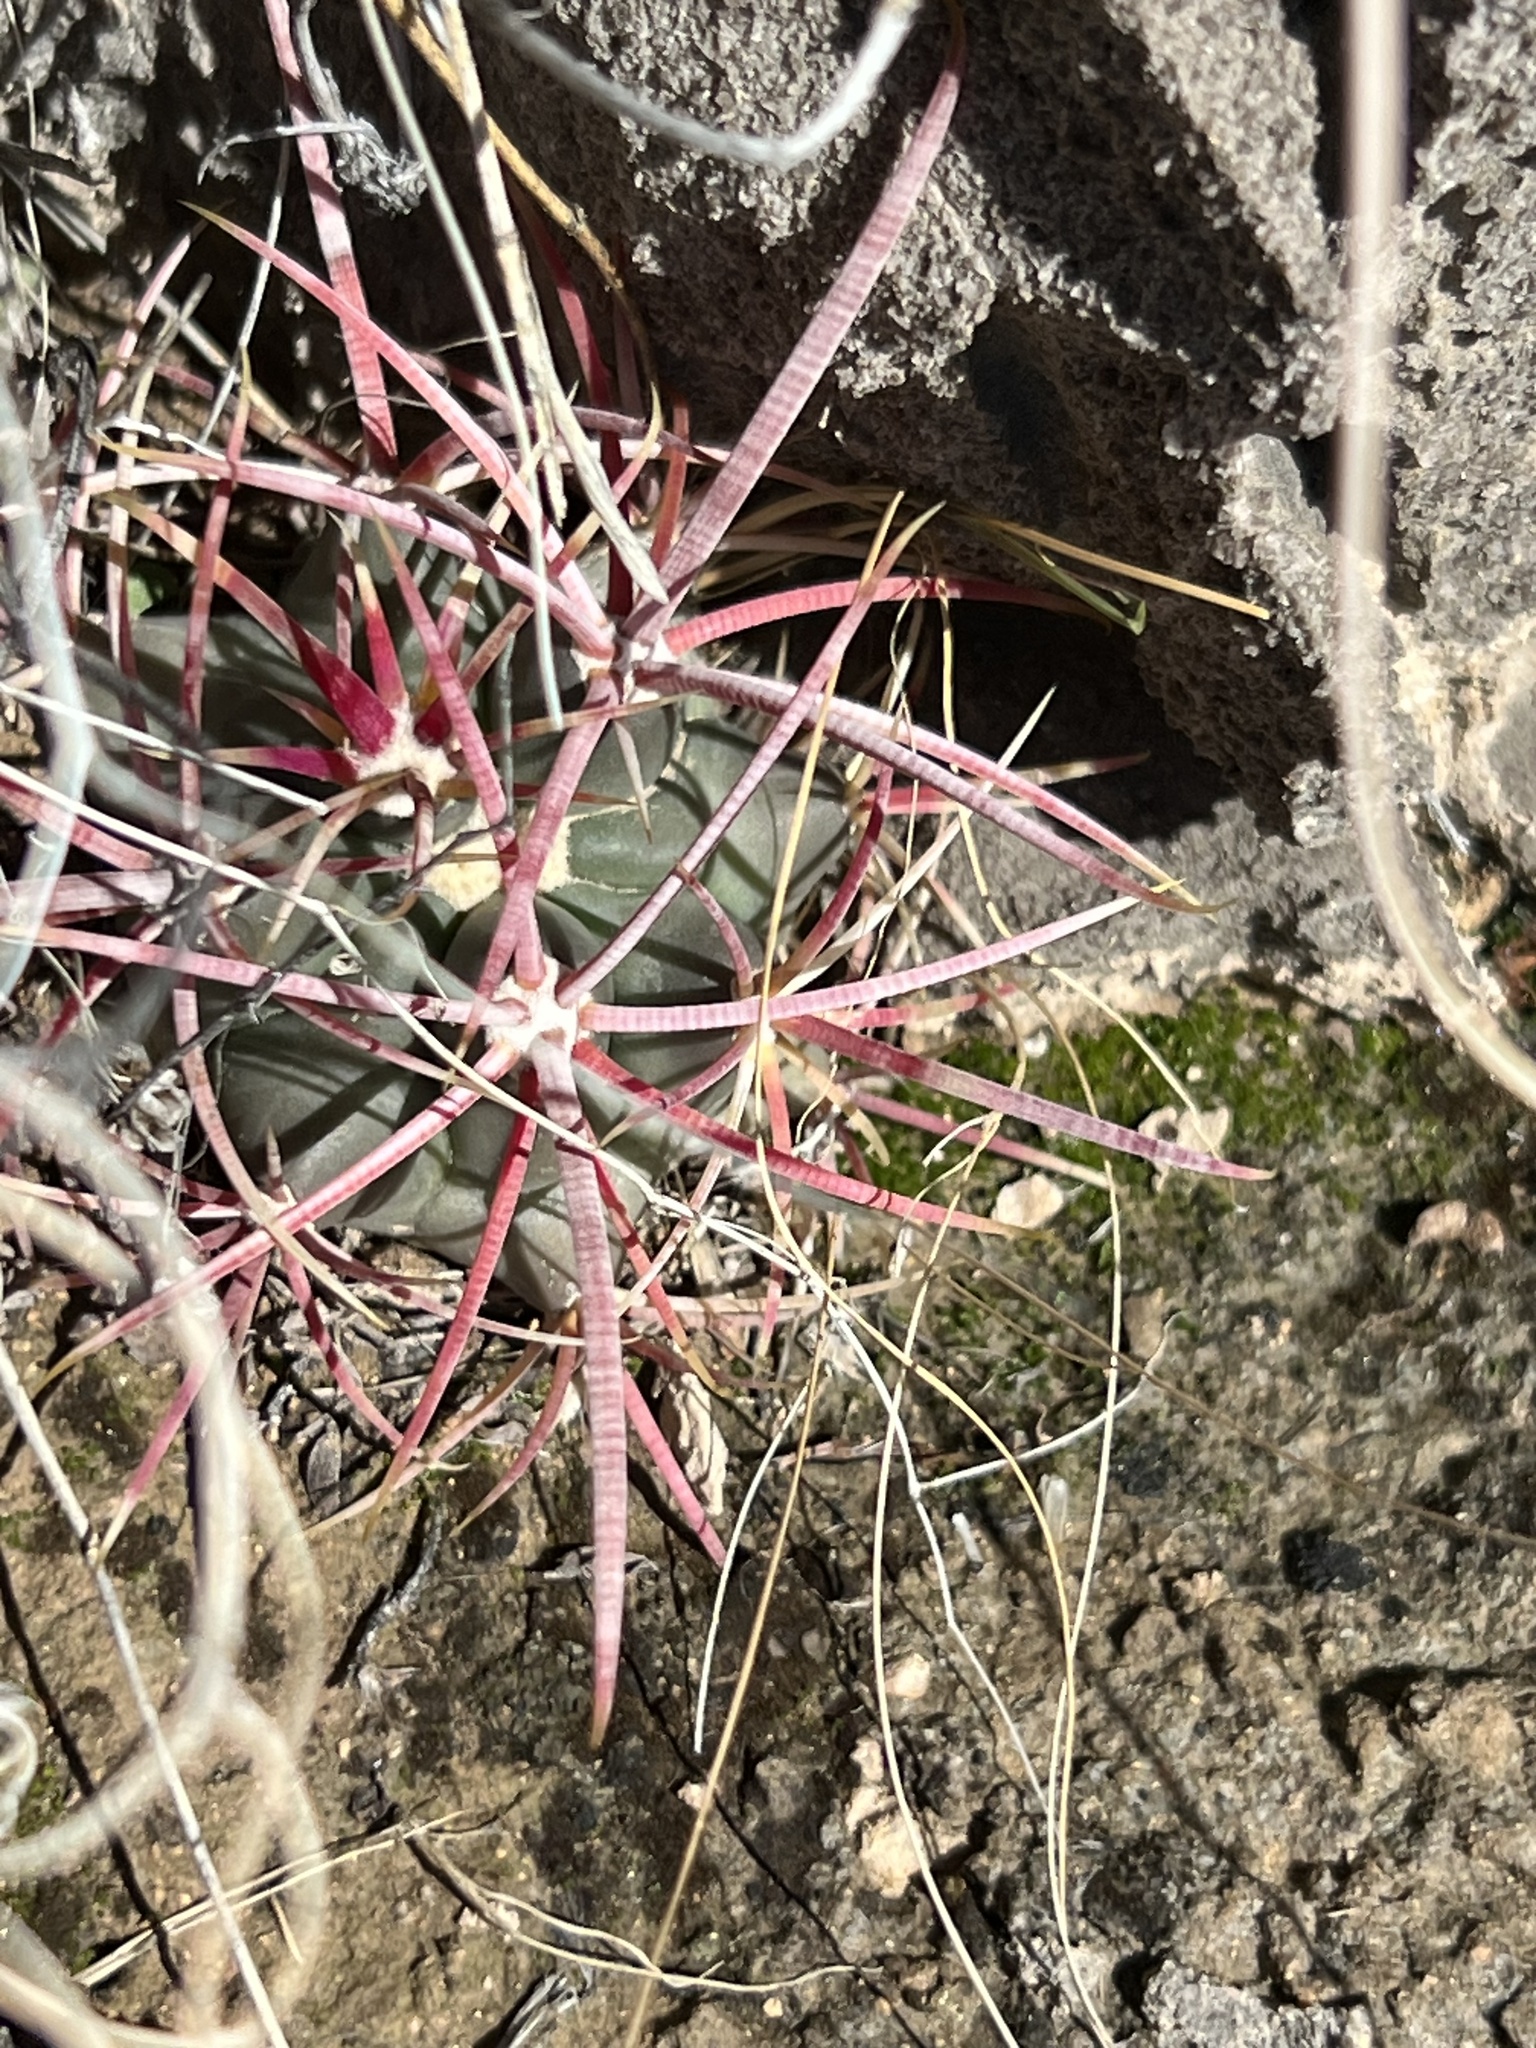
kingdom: Plantae
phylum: Tracheophyta
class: Magnoliopsida
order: Caryophyllales
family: Cactaceae
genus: Ferocactus
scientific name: Ferocactus cylindraceus
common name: California barrel cactus
